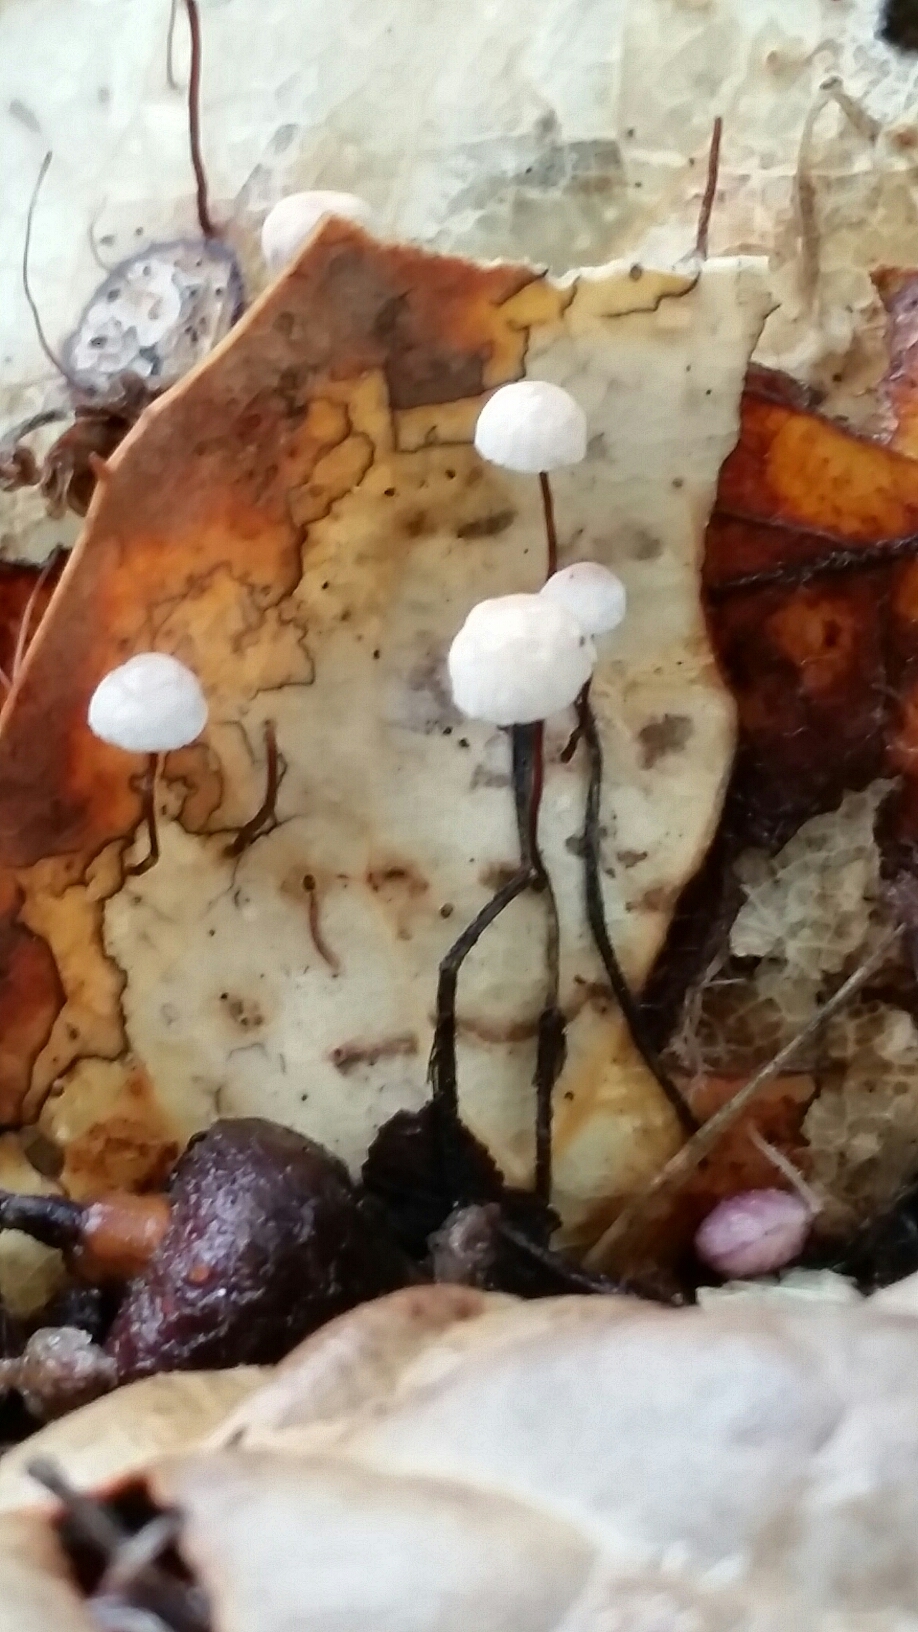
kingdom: Fungi
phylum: Basidiomycota
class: Agaricomycetes
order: Agaricales
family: Omphalotaceae
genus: Collybiopsis
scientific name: Collybiopsis quercophila
